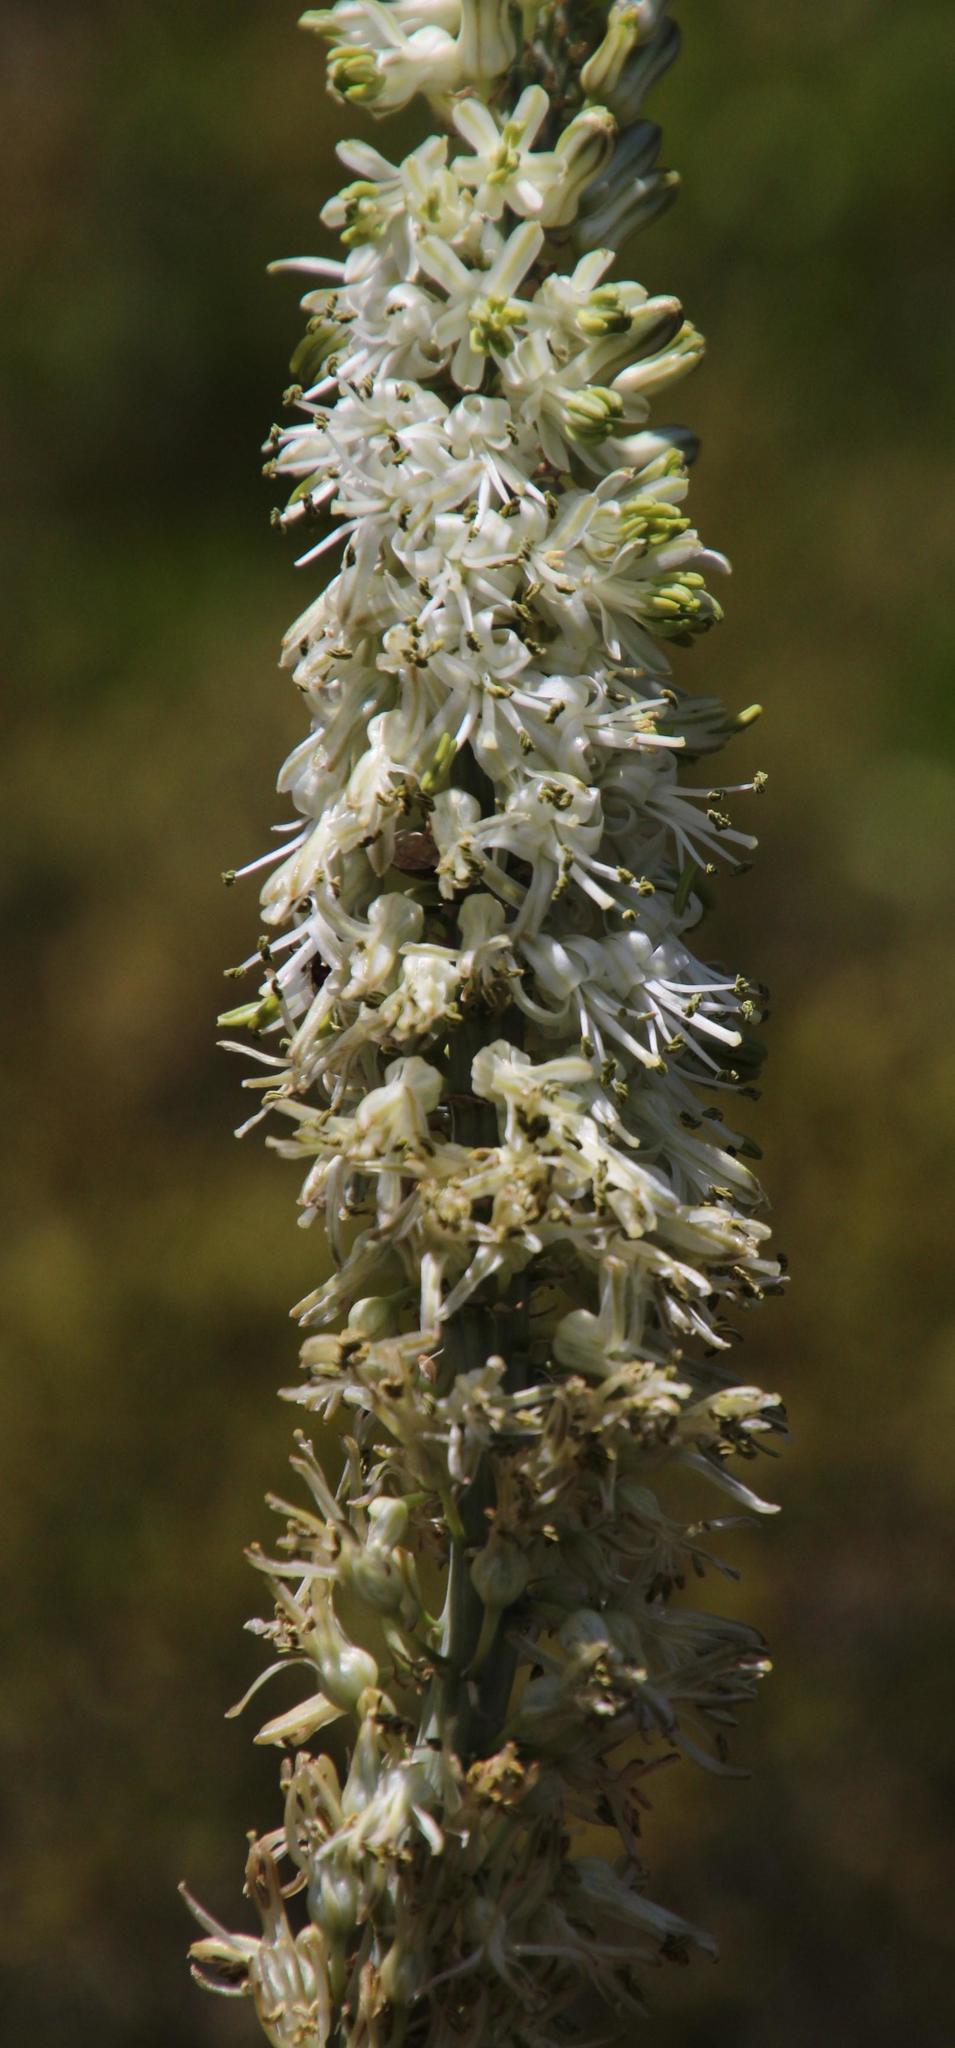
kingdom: Plantae
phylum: Tracheophyta
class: Liliopsida
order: Asparagales
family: Asparagaceae
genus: Drimia
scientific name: Drimia capensis
